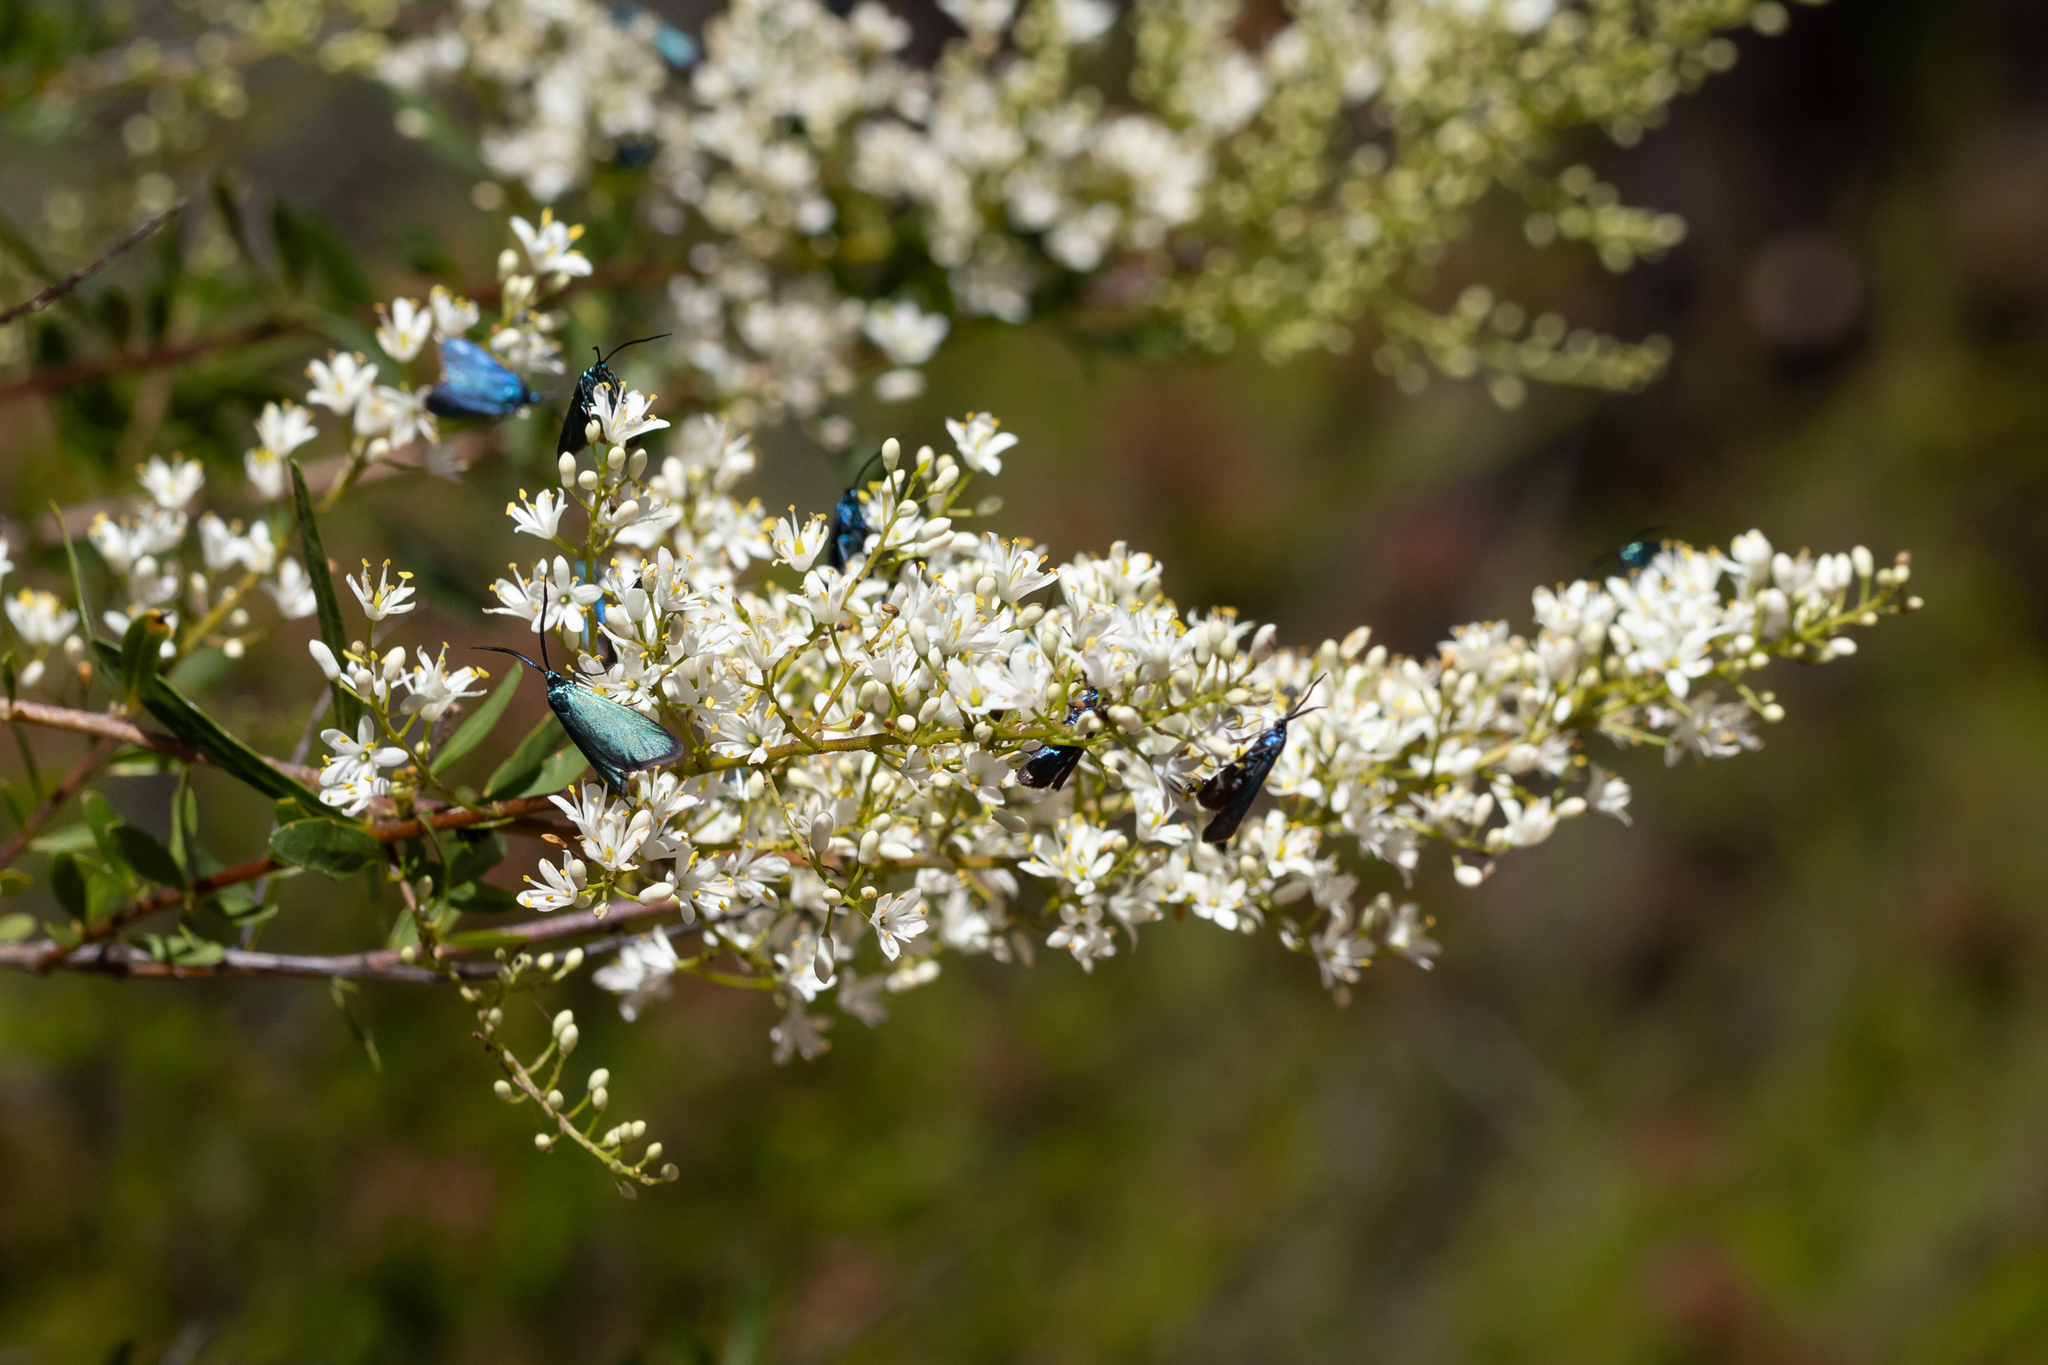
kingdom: Plantae
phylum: Tracheophyta
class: Magnoliopsida
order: Apiales
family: Pittosporaceae
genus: Bursaria
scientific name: Bursaria spinosa
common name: Australian blackthorn
